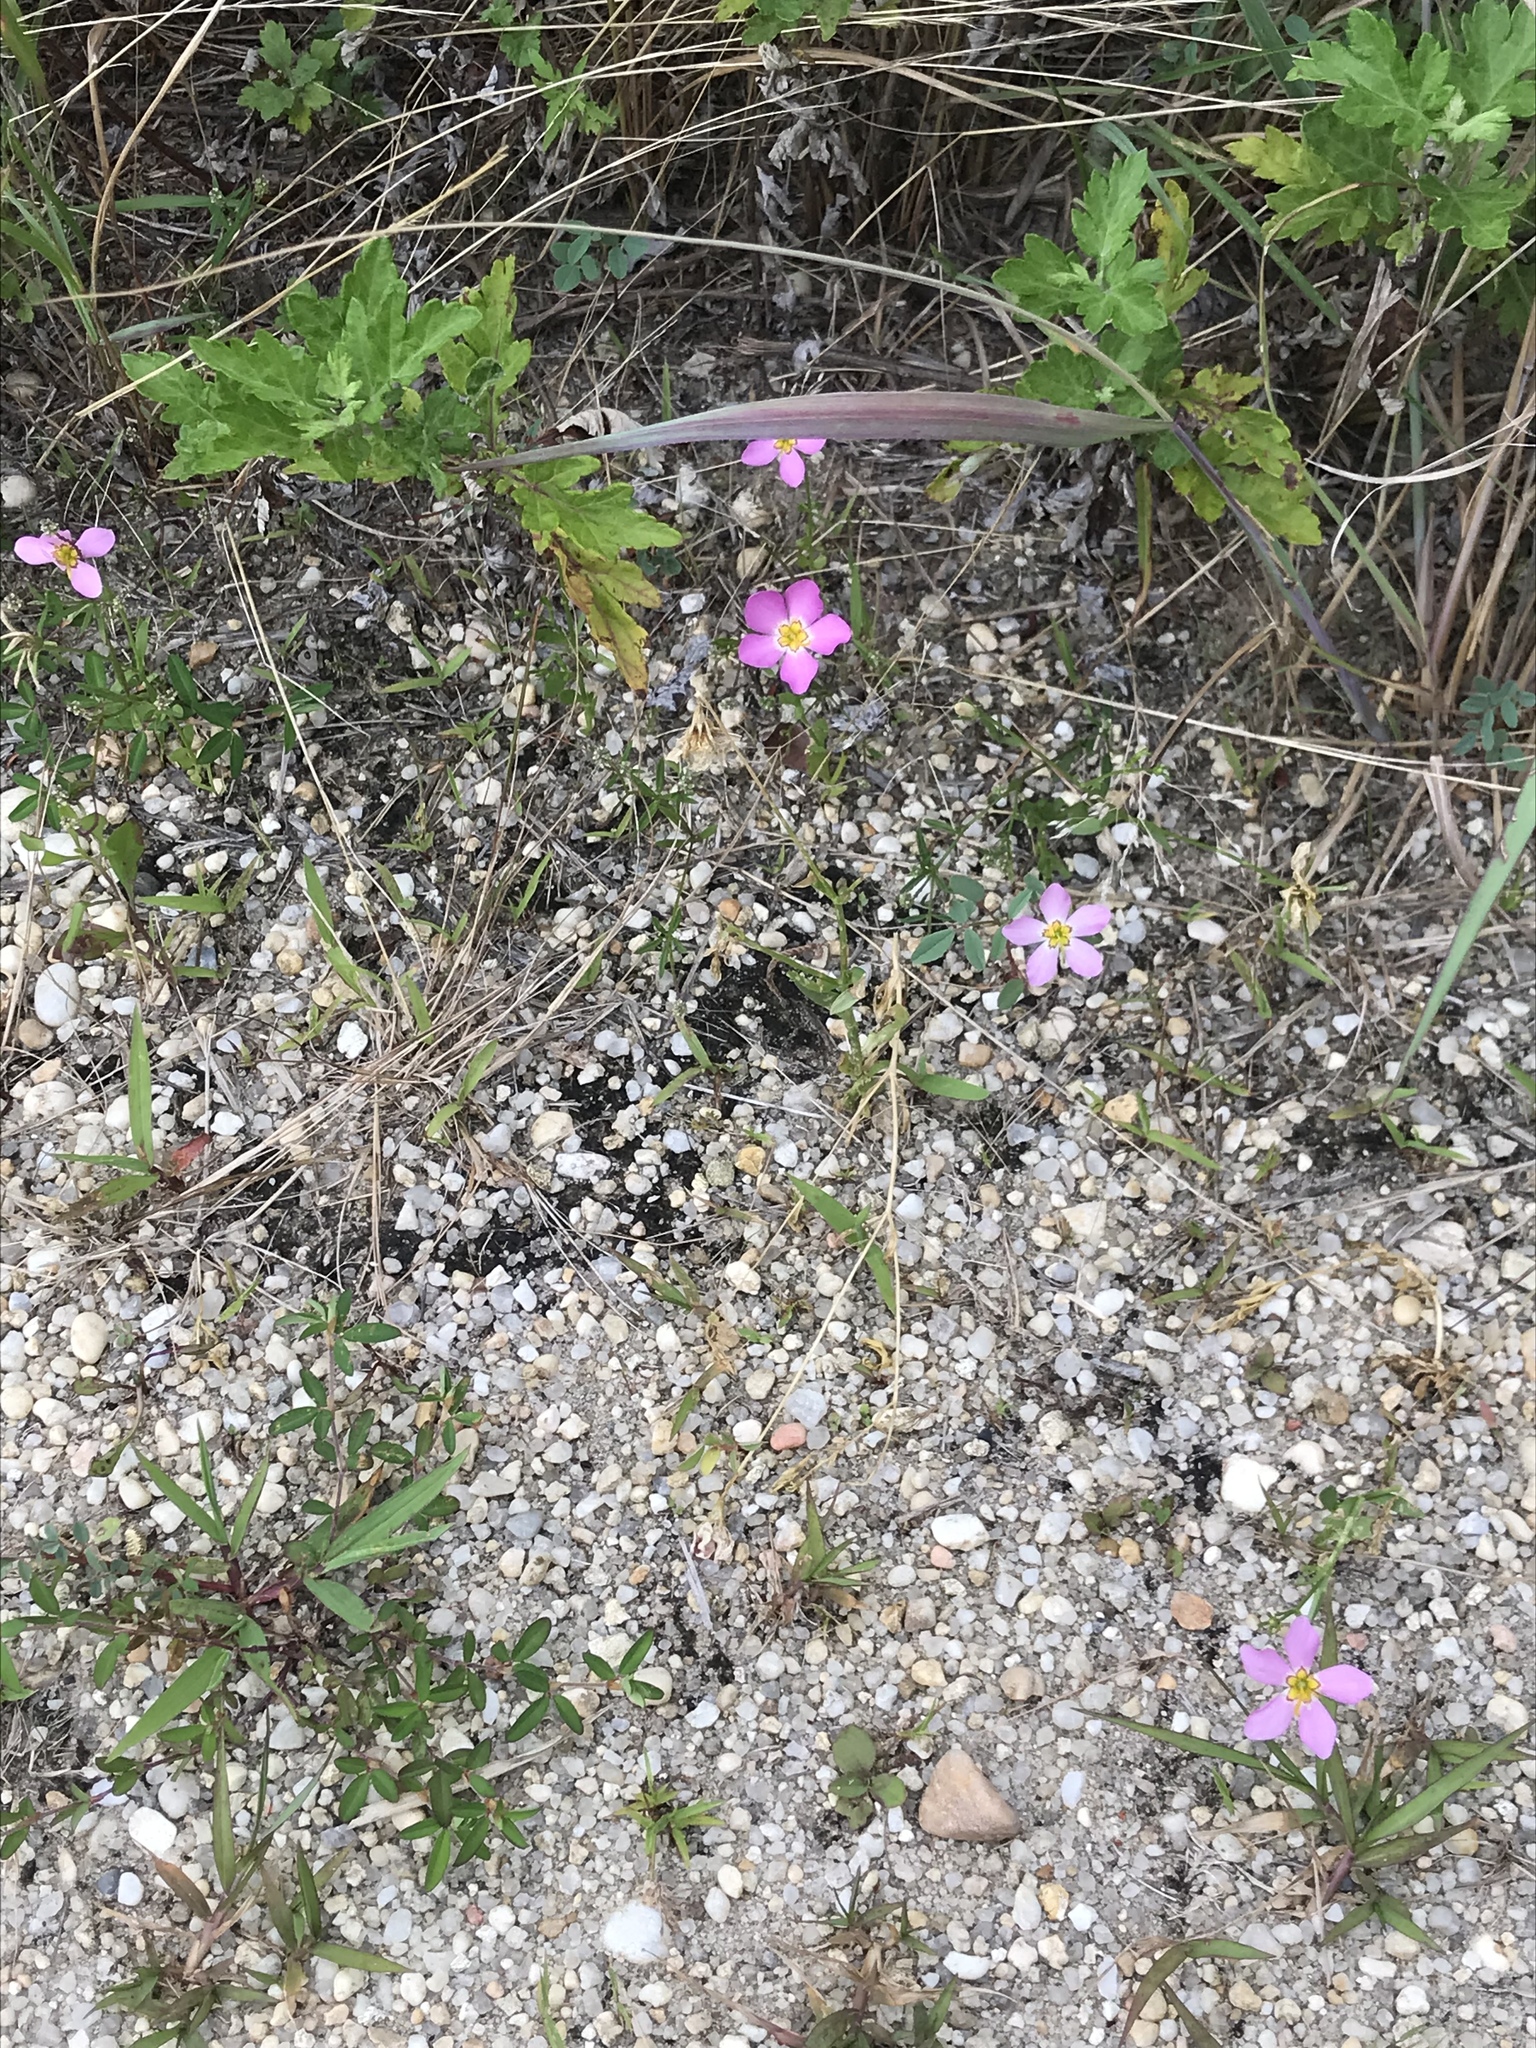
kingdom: Plantae
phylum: Tracheophyta
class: Magnoliopsida
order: Gentianales
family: Gentianaceae
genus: Sabatia
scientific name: Sabatia stellaris
